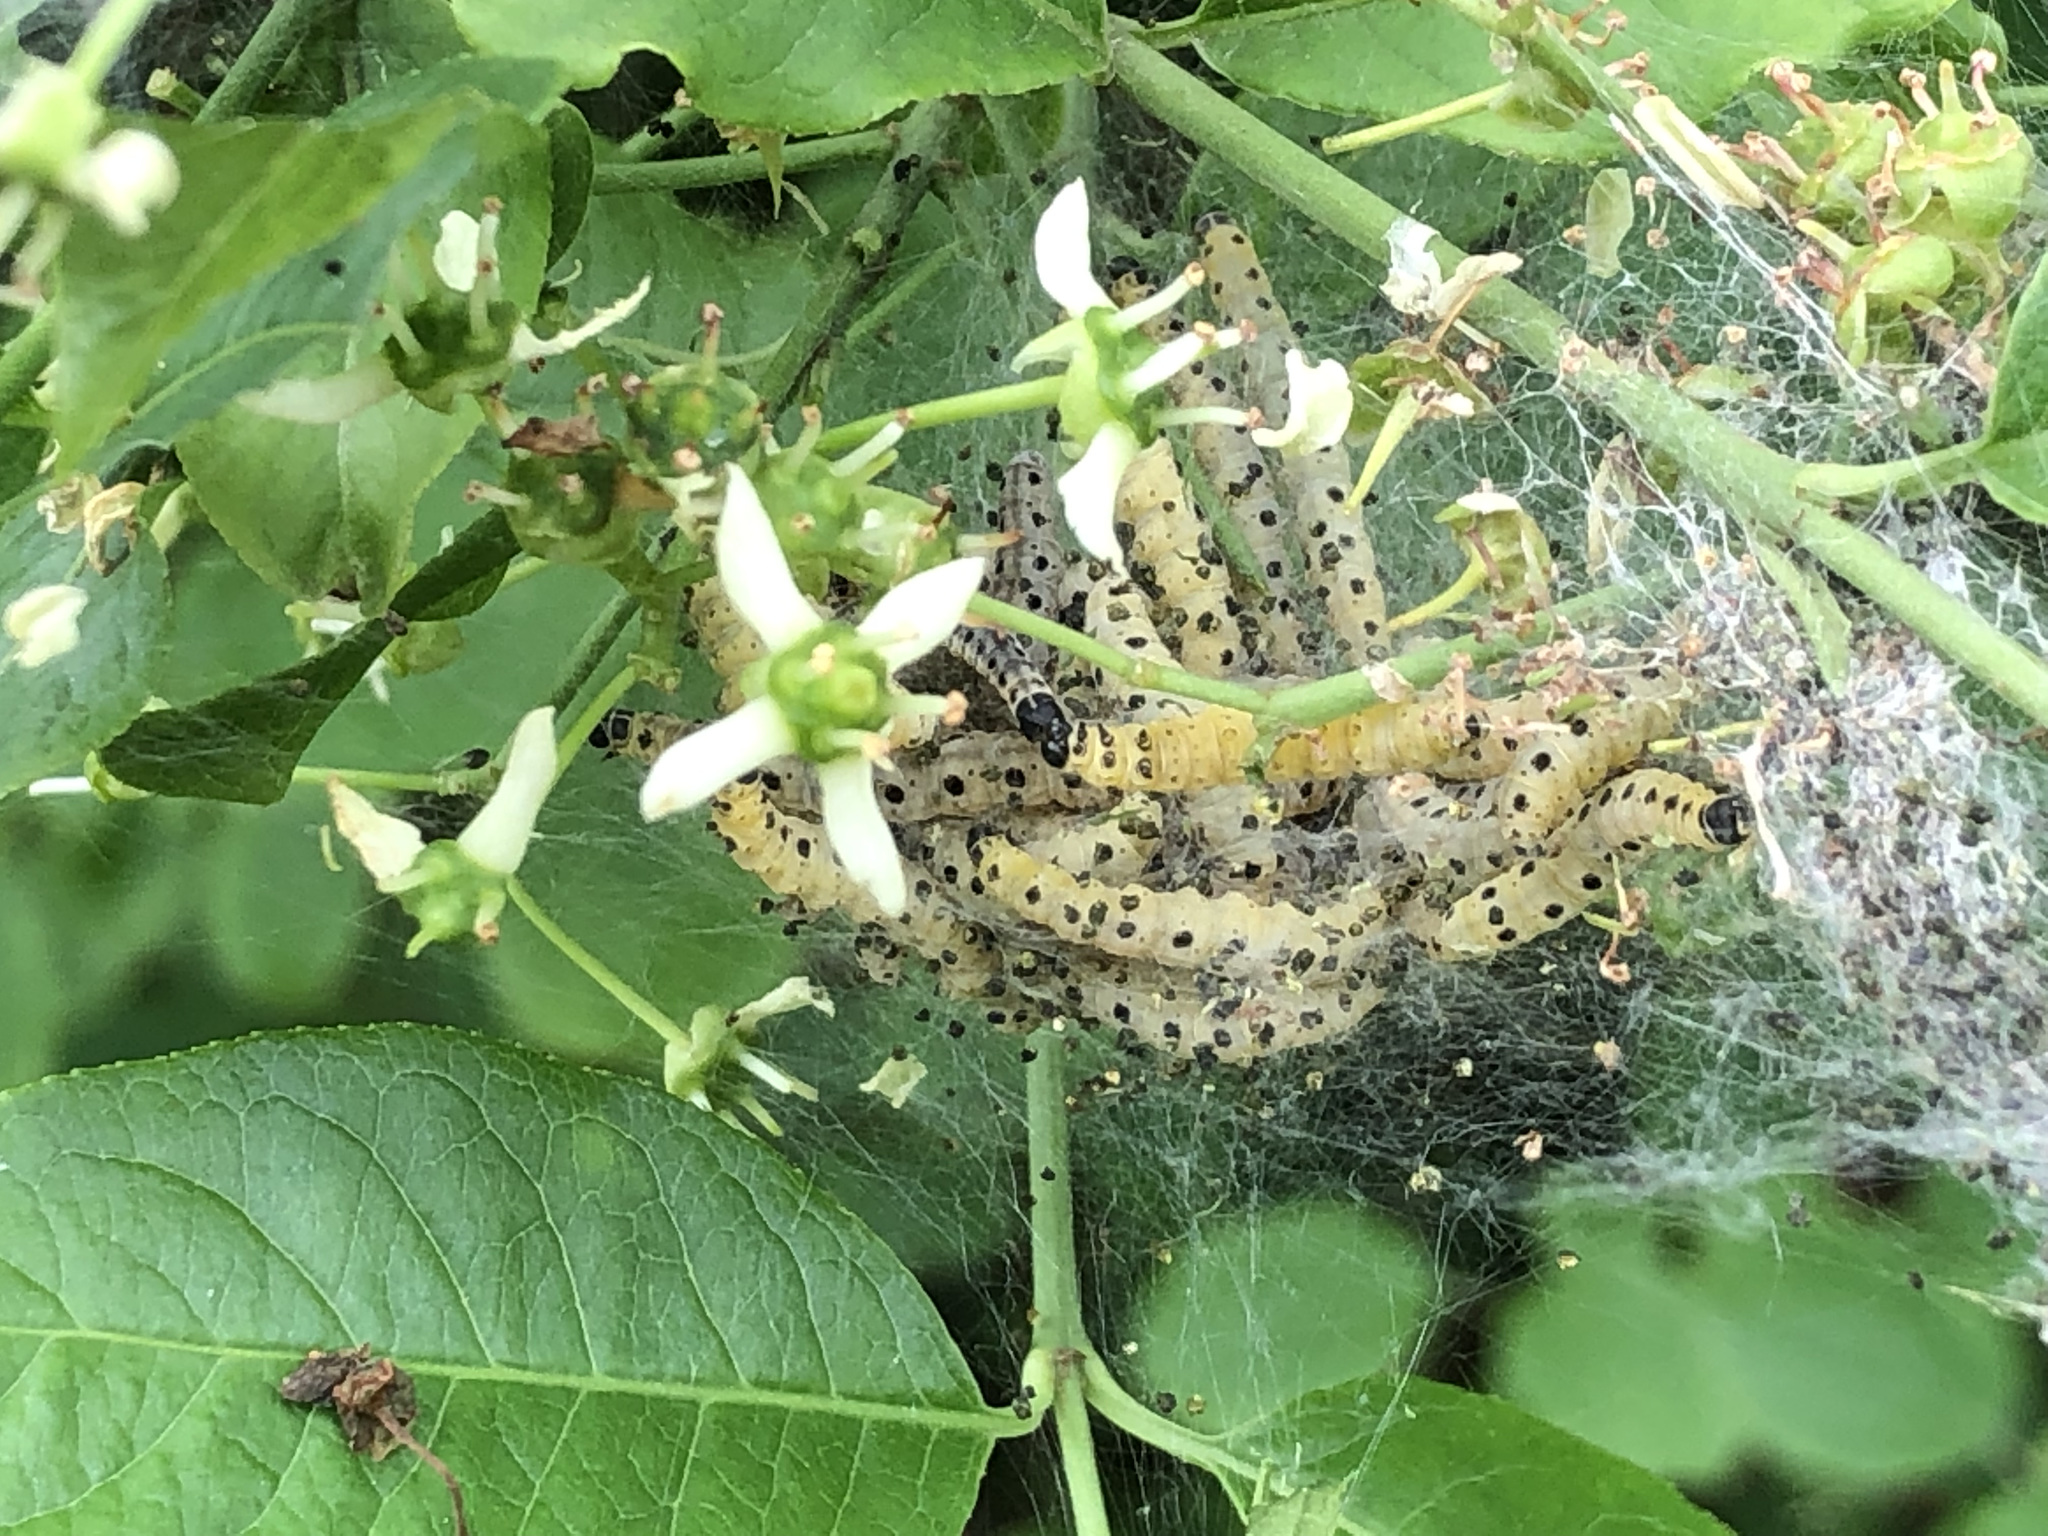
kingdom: Animalia
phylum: Arthropoda
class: Insecta
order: Lepidoptera
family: Yponomeutidae
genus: Yponomeuta
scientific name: Yponomeuta cagnagellus
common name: Spindle ermine
